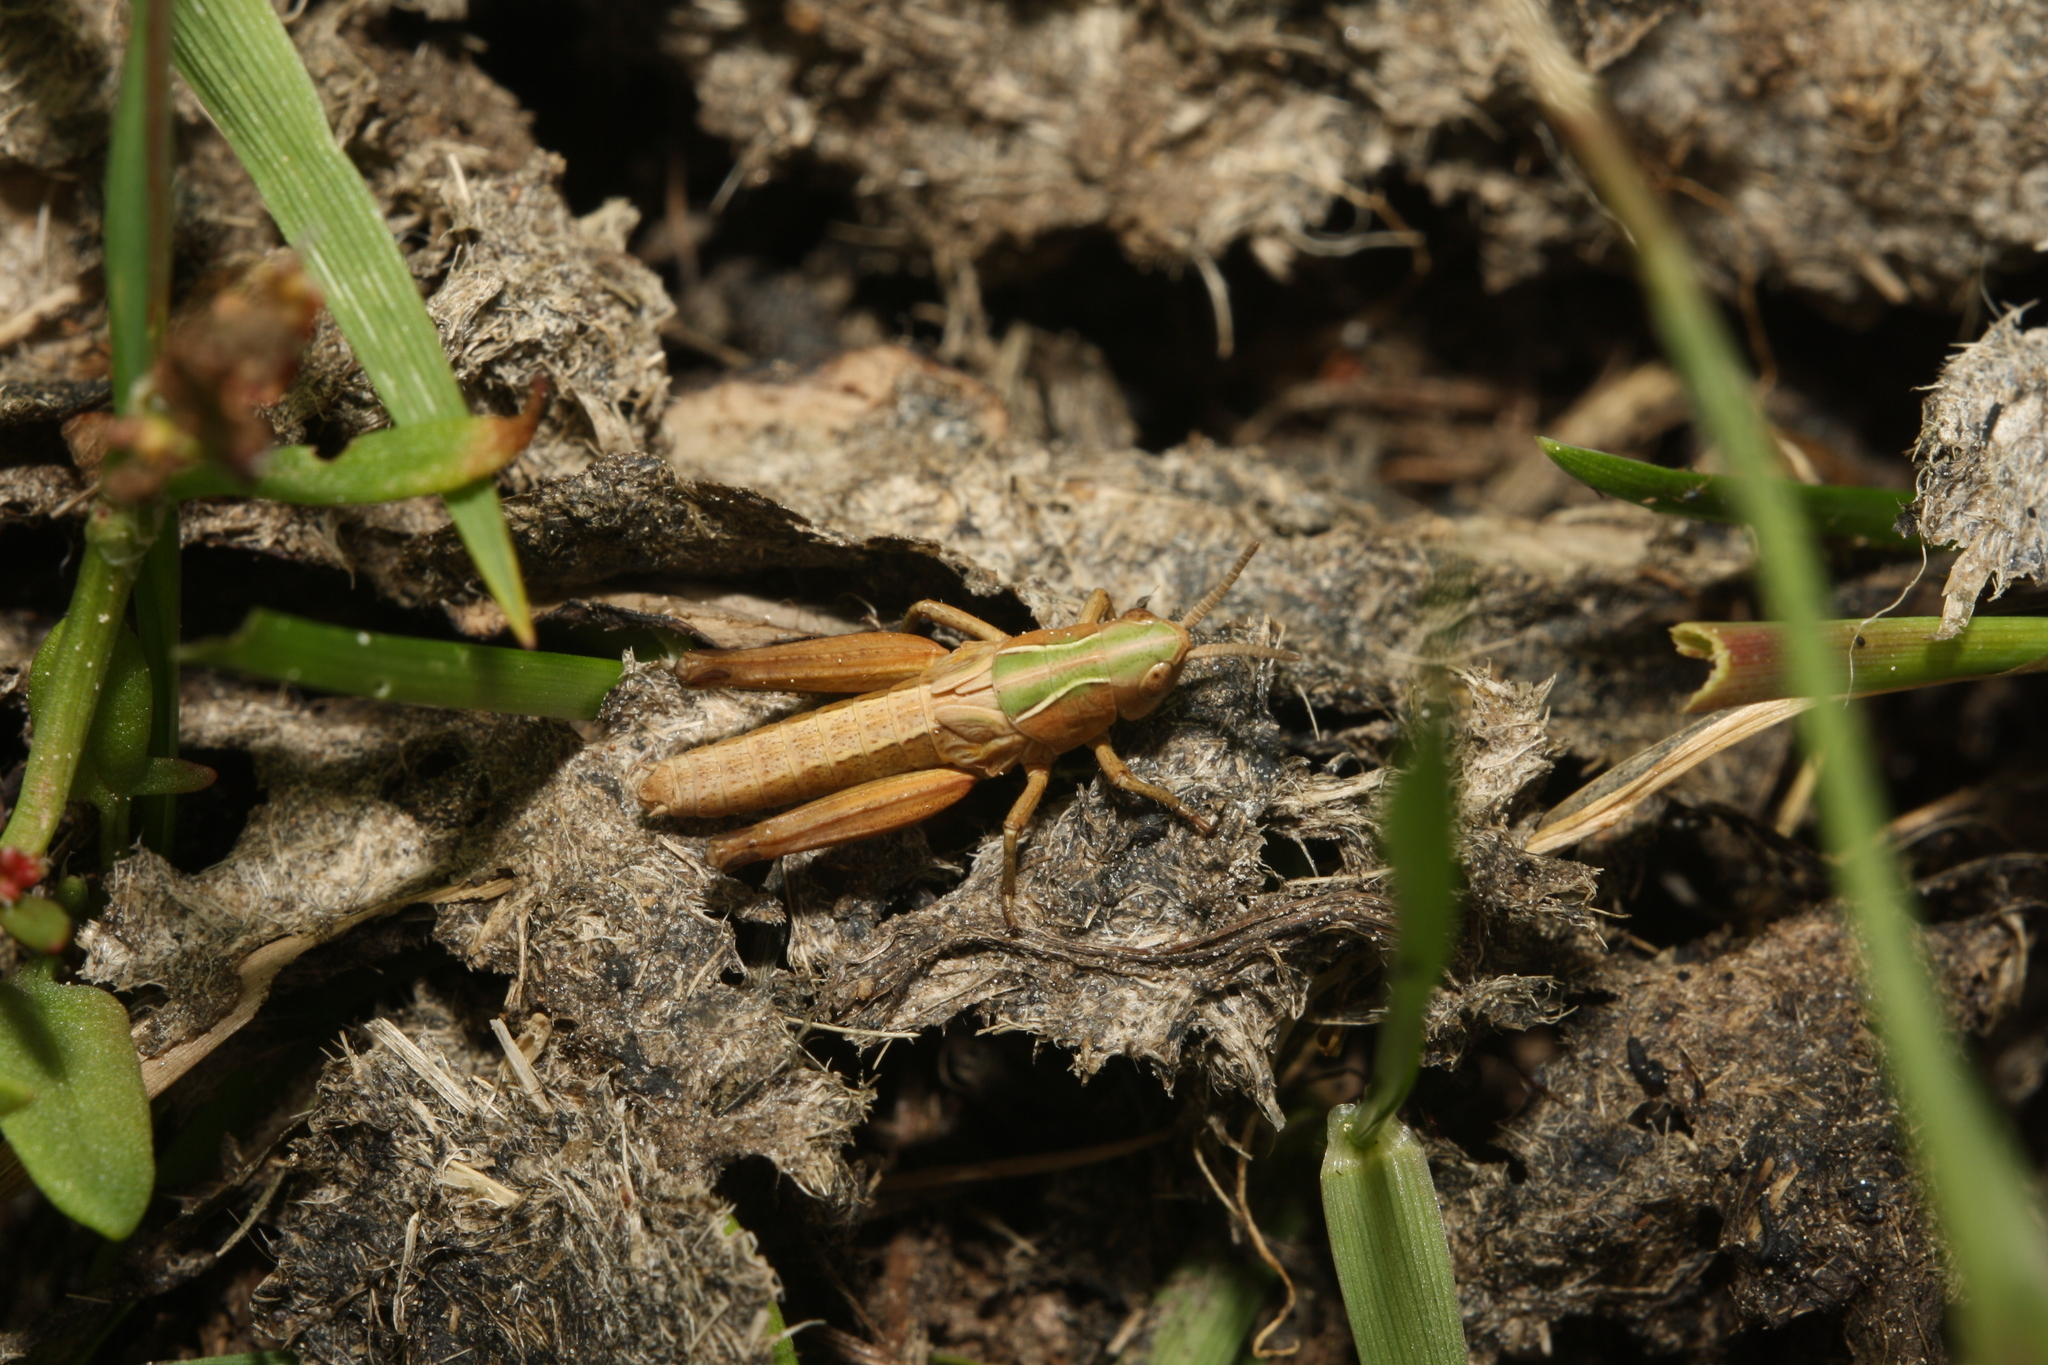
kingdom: Animalia
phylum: Arthropoda
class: Insecta
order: Orthoptera
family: Acrididae
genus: Omocestus
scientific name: Omocestus viridulus
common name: Common green grasshopper
